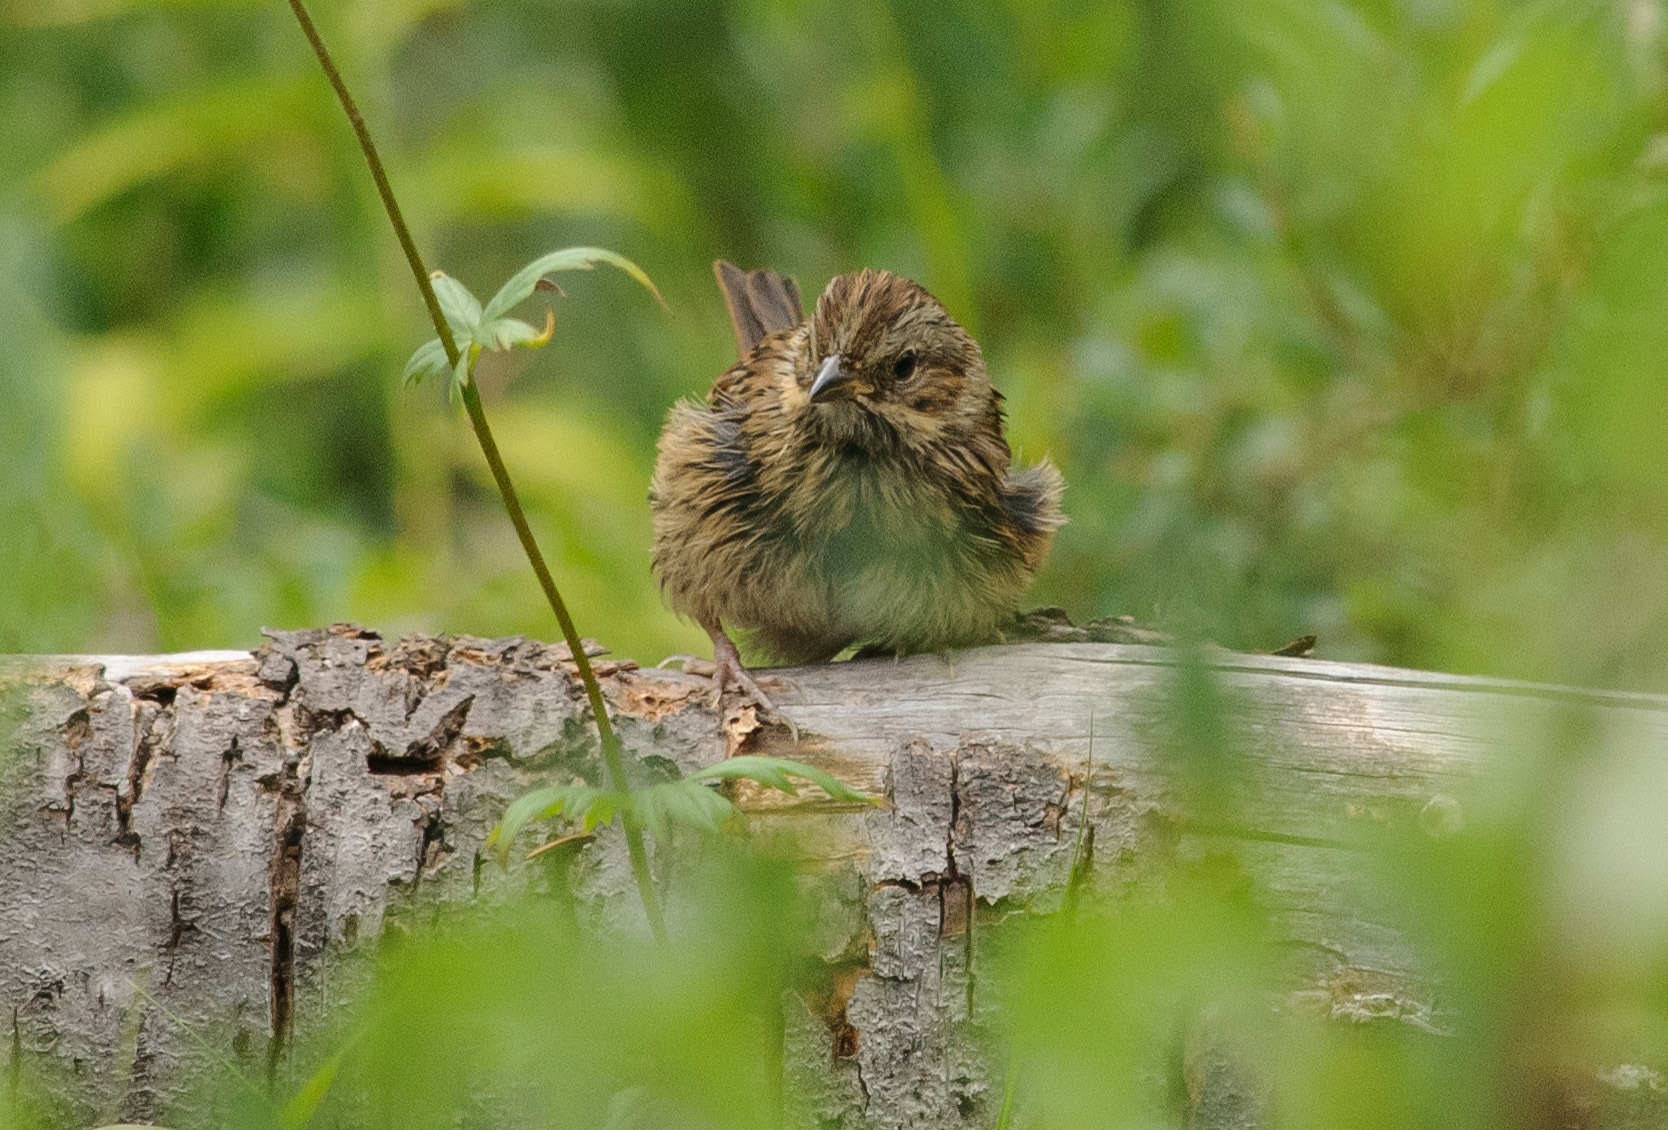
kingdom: Animalia
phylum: Chordata
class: Aves
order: Passeriformes
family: Passerellidae
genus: Melospiza
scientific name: Melospiza lincolnii
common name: Lincoln's sparrow
